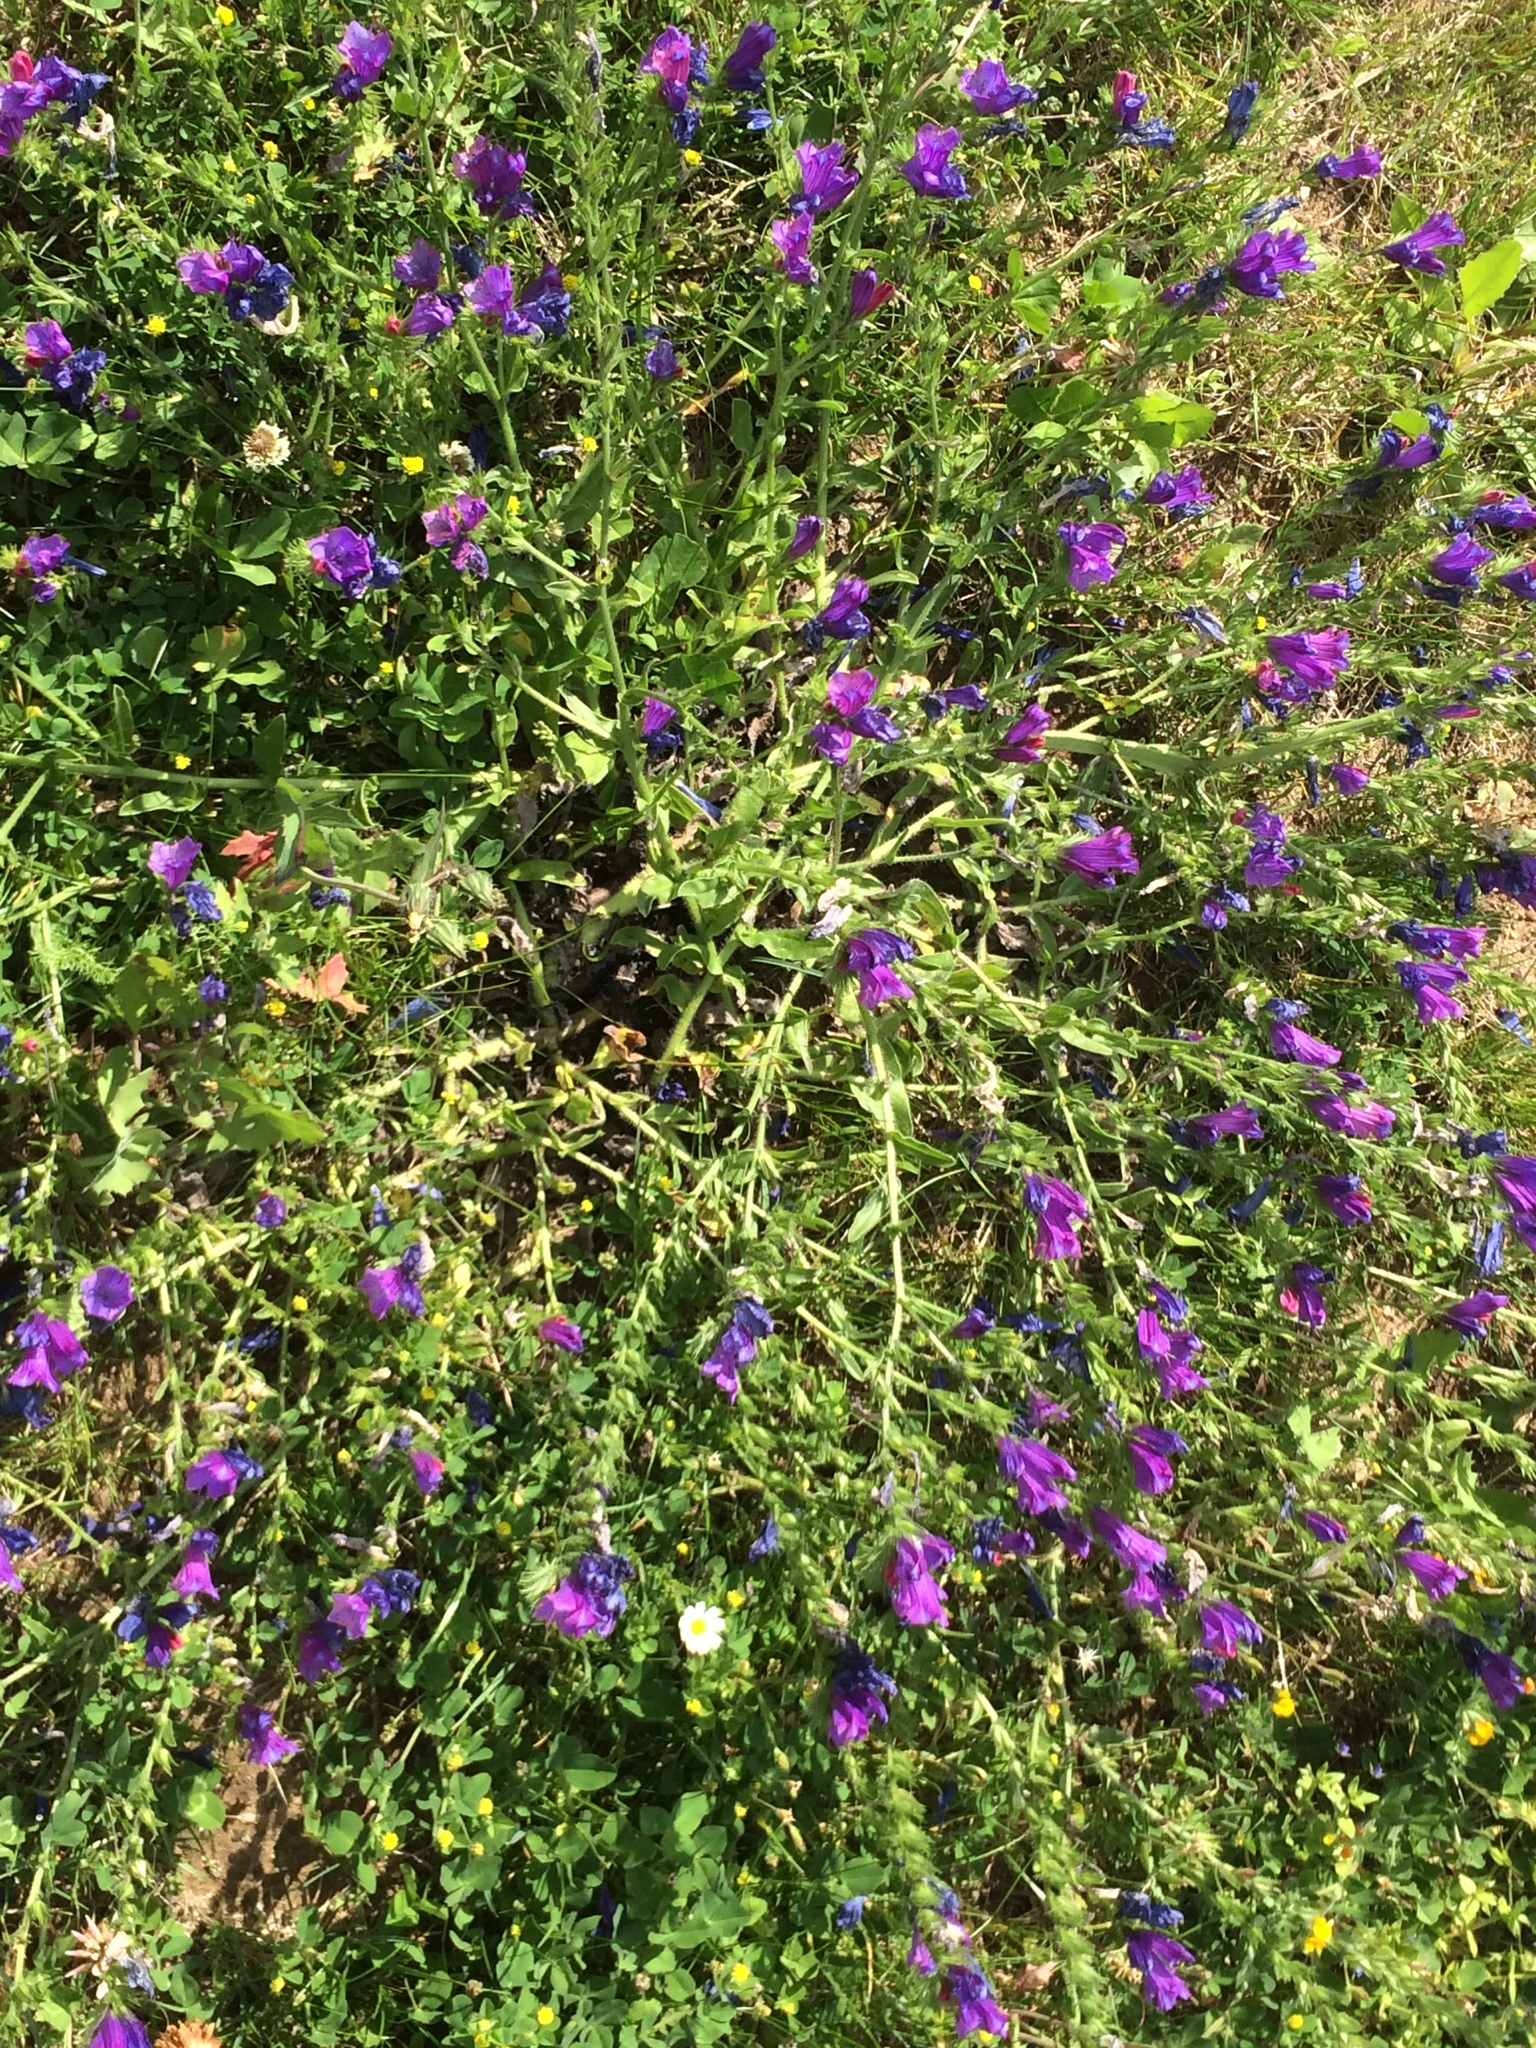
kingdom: Plantae
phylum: Tracheophyta
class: Magnoliopsida
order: Boraginales
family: Boraginaceae
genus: Echium
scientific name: Echium plantagineum
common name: Purple viper's-bugloss
